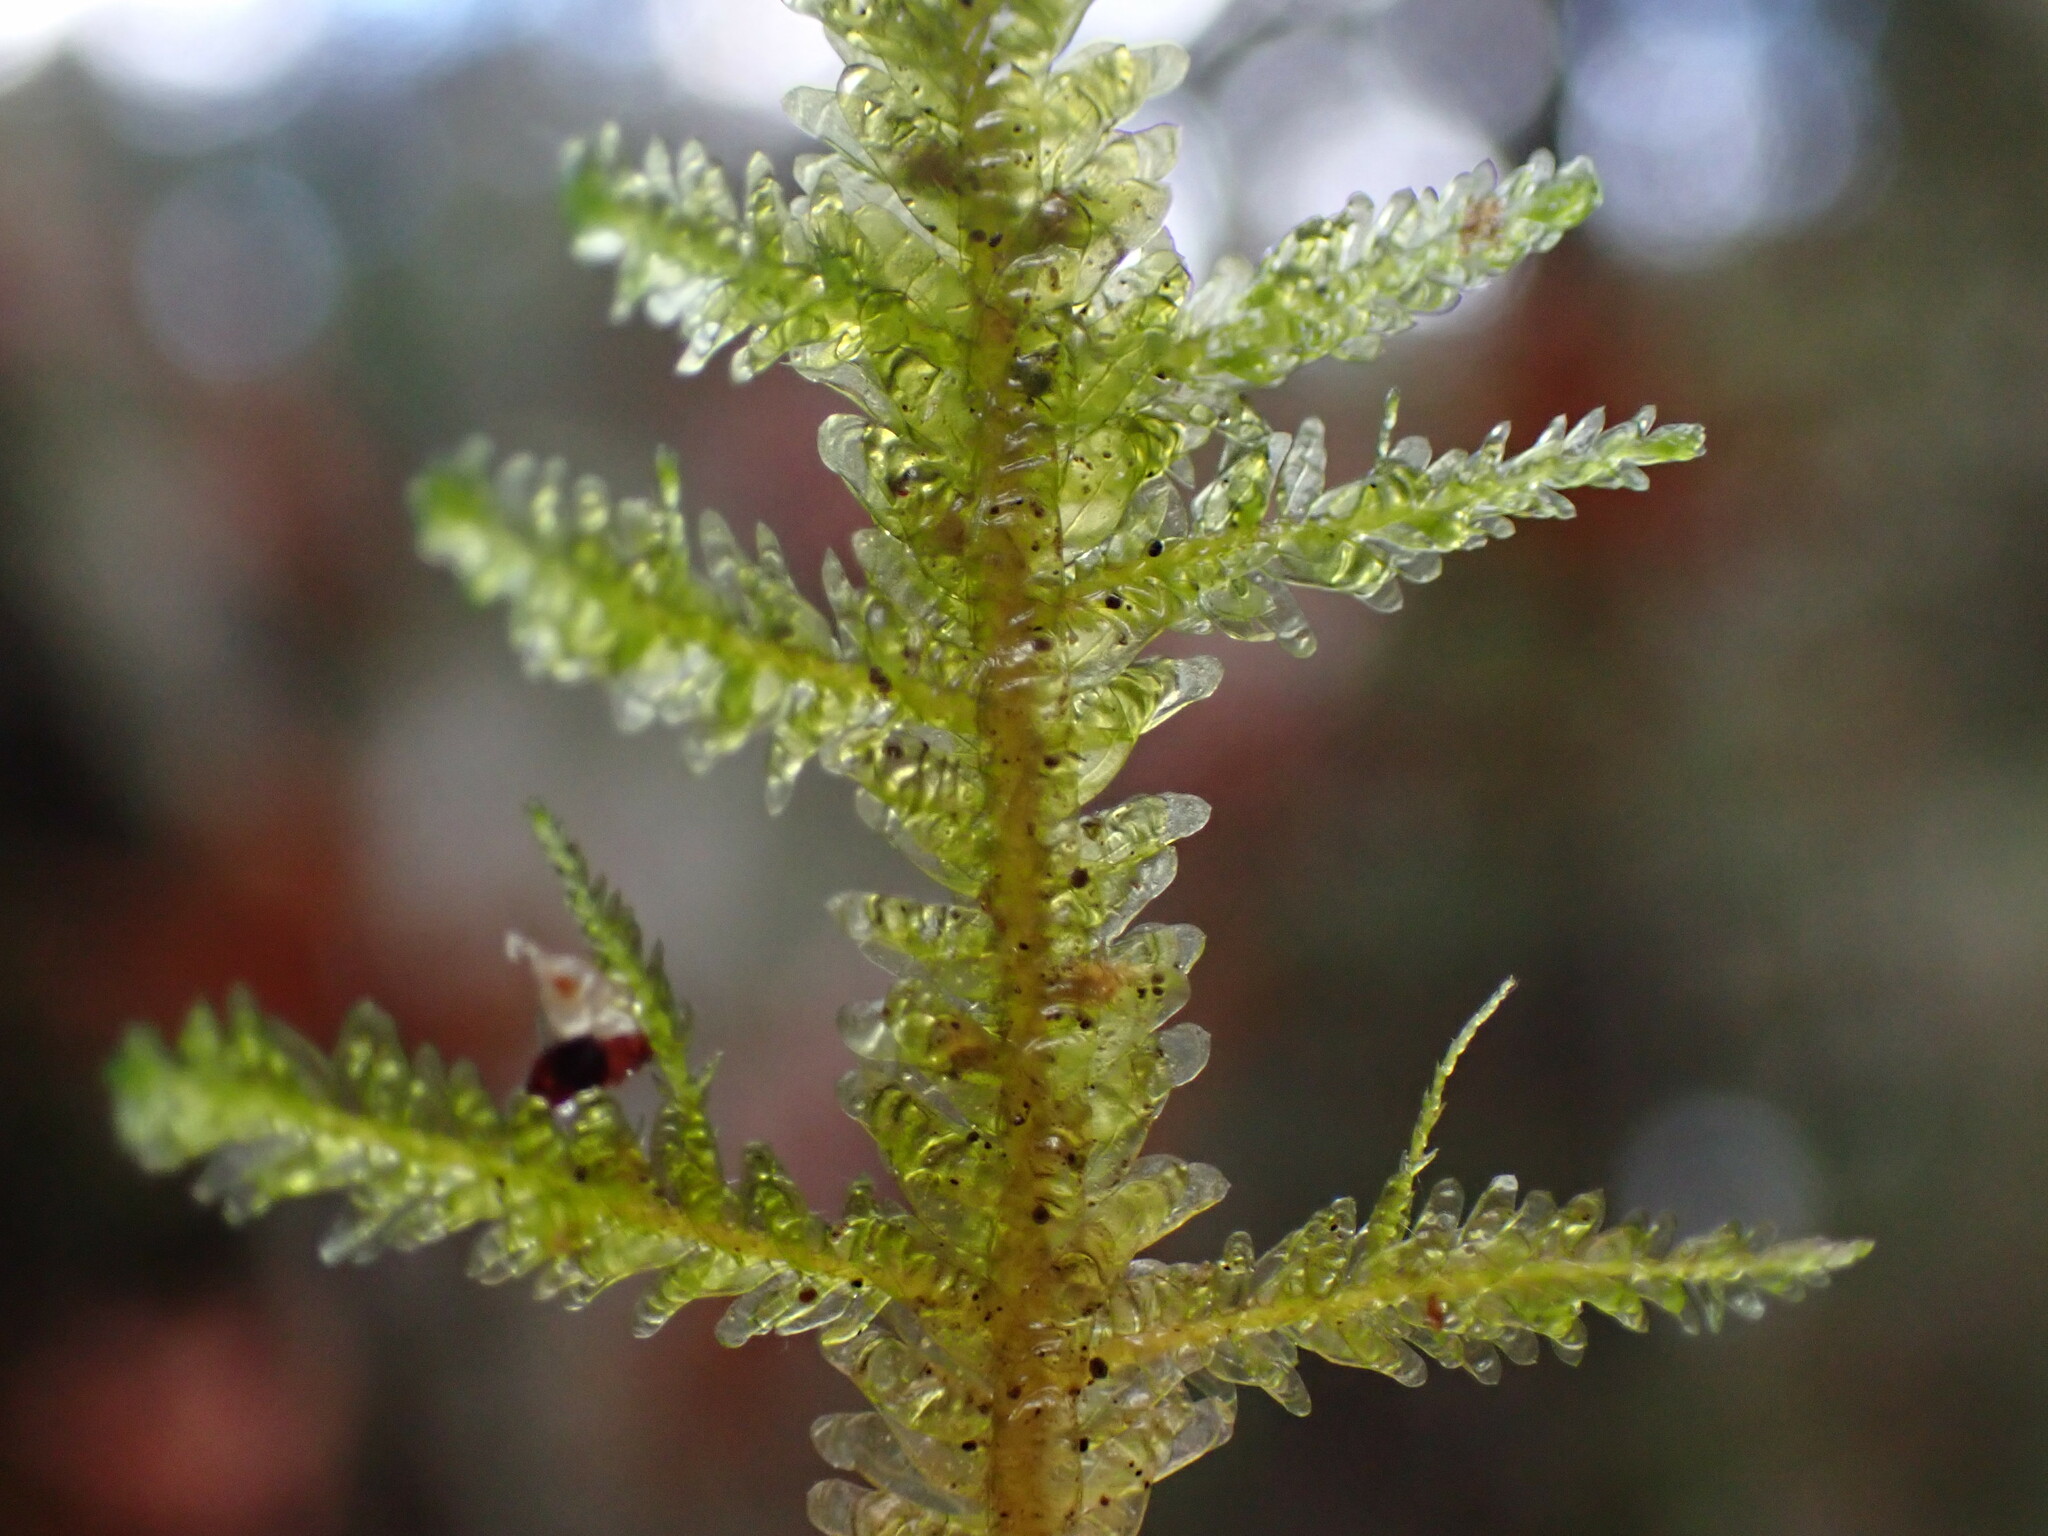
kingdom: Plantae
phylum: Bryophyta
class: Bryopsida
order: Hypnales
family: Neckeraceae
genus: Metaneckera
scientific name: Metaneckera menziesii
